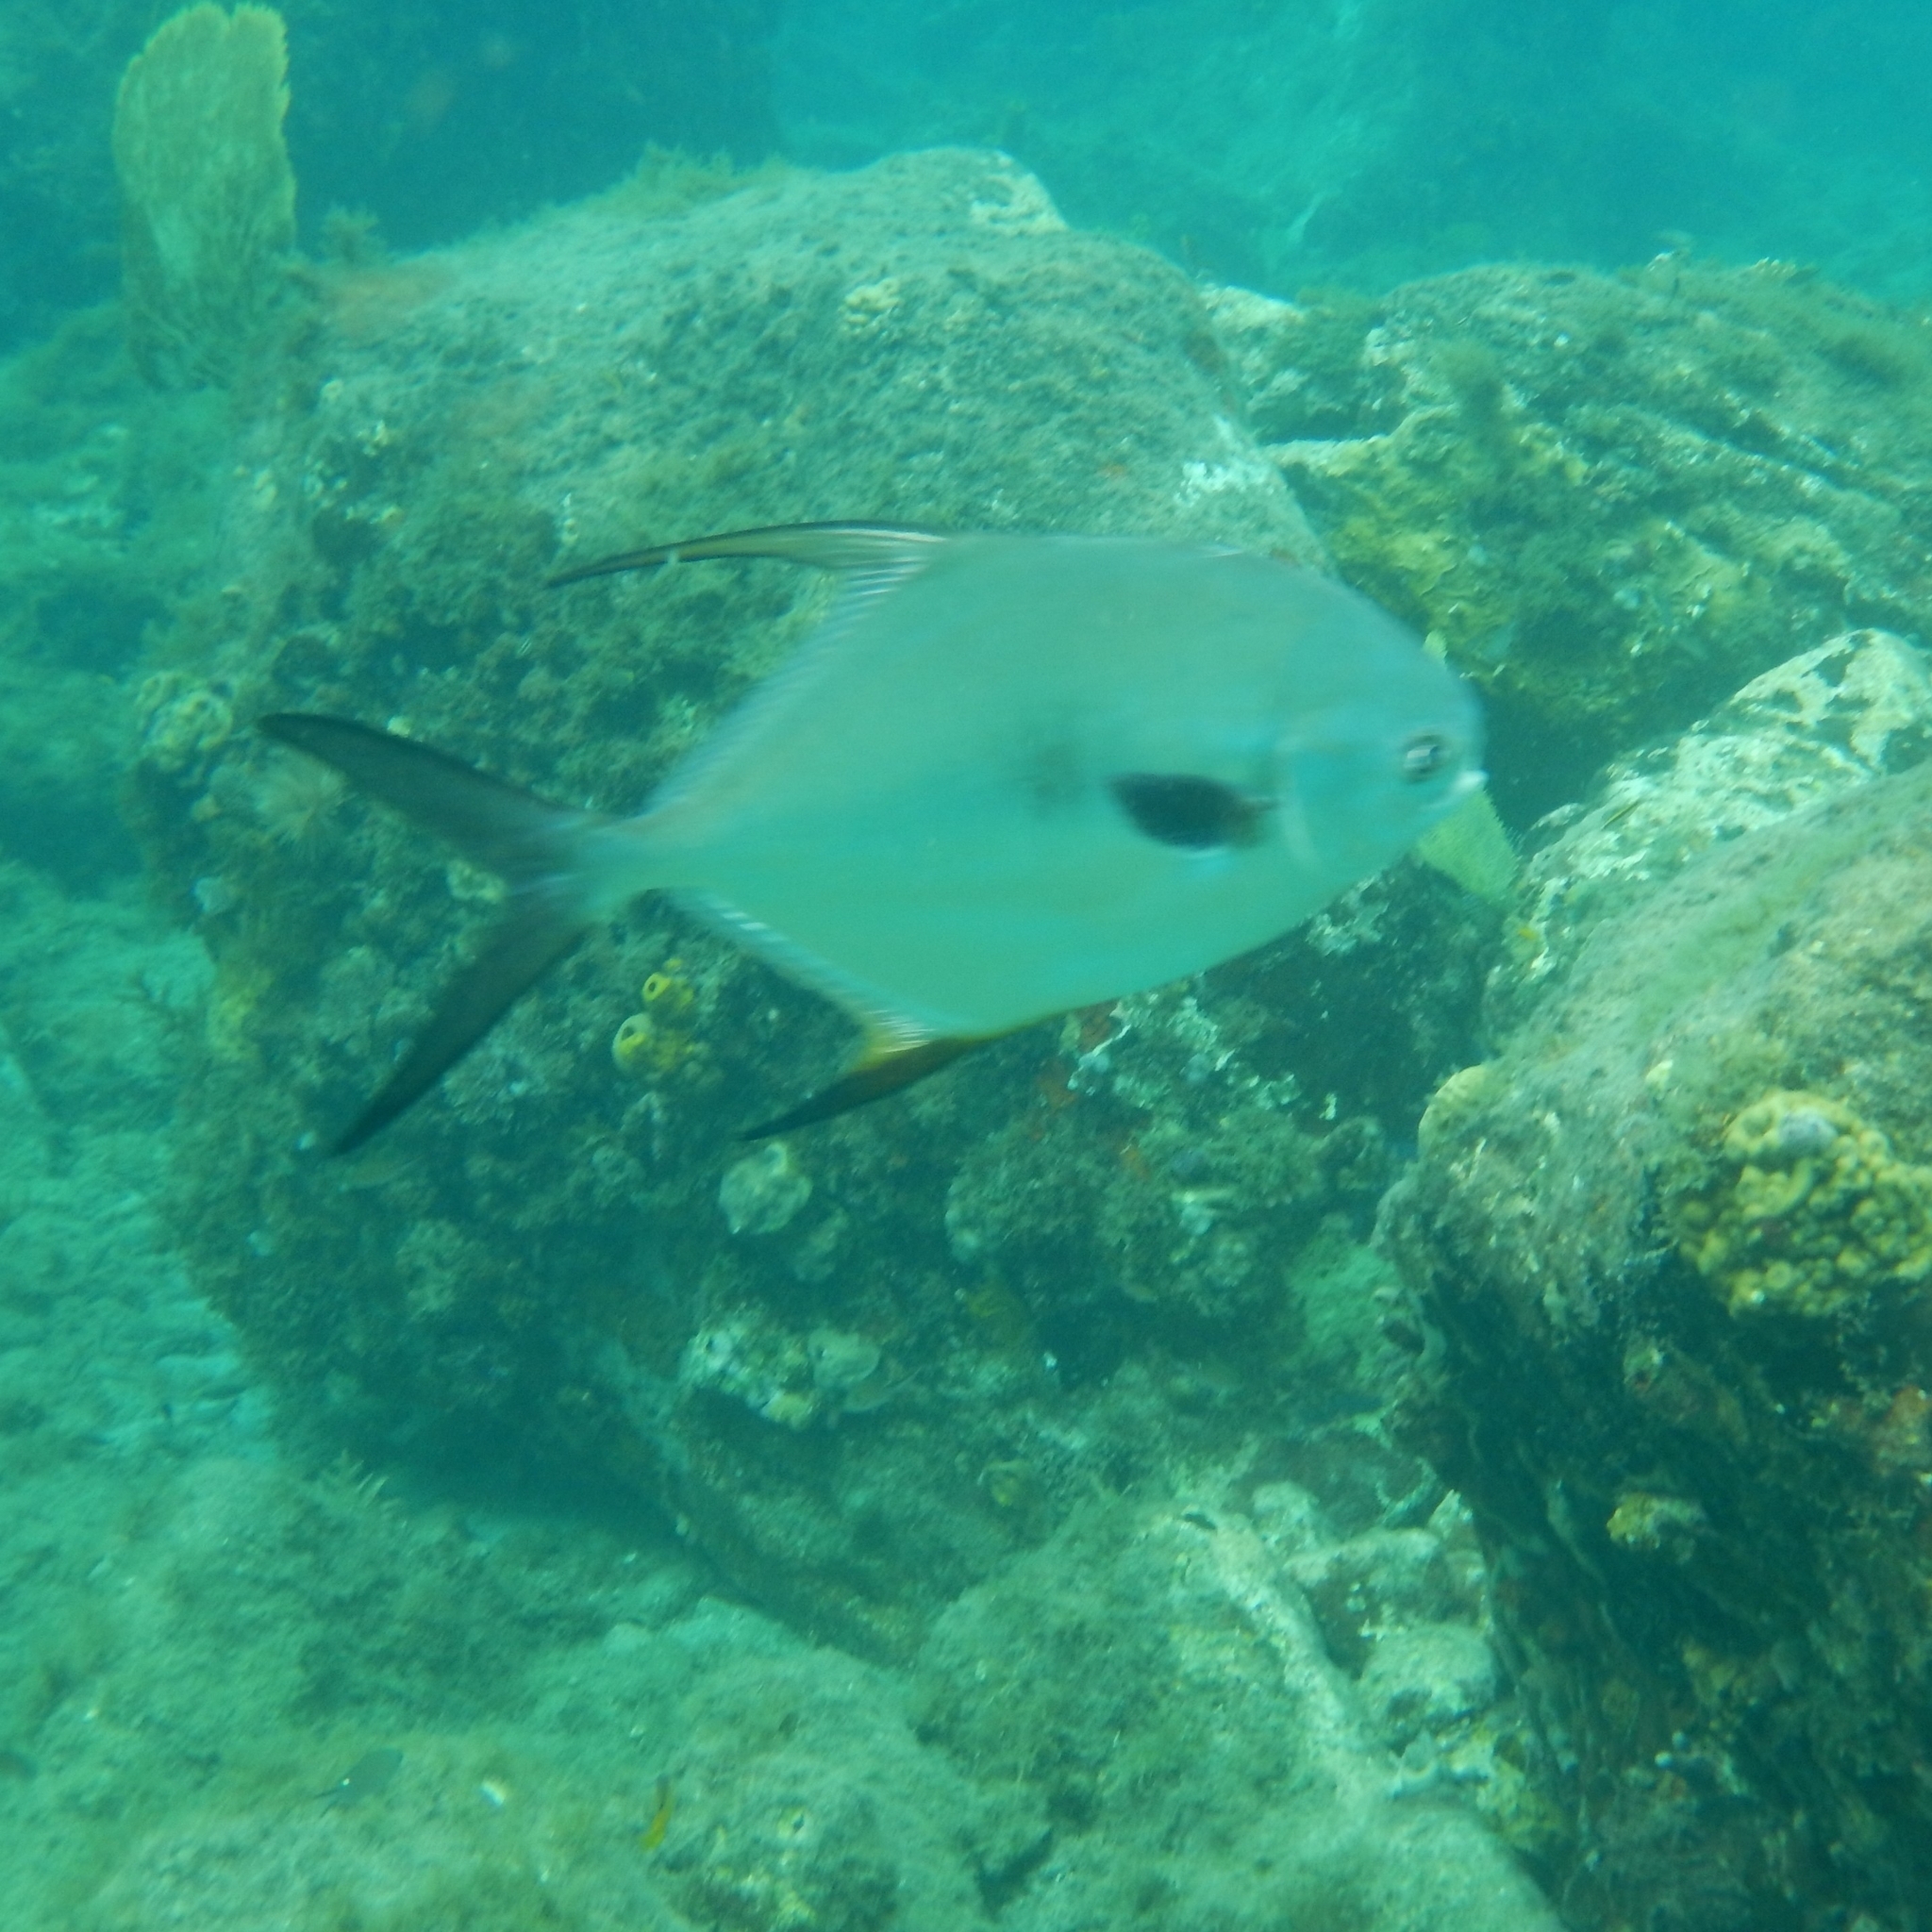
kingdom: Animalia
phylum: Chordata
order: Perciformes
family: Carangidae
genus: Trachinotus
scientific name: Trachinotus falcatus
